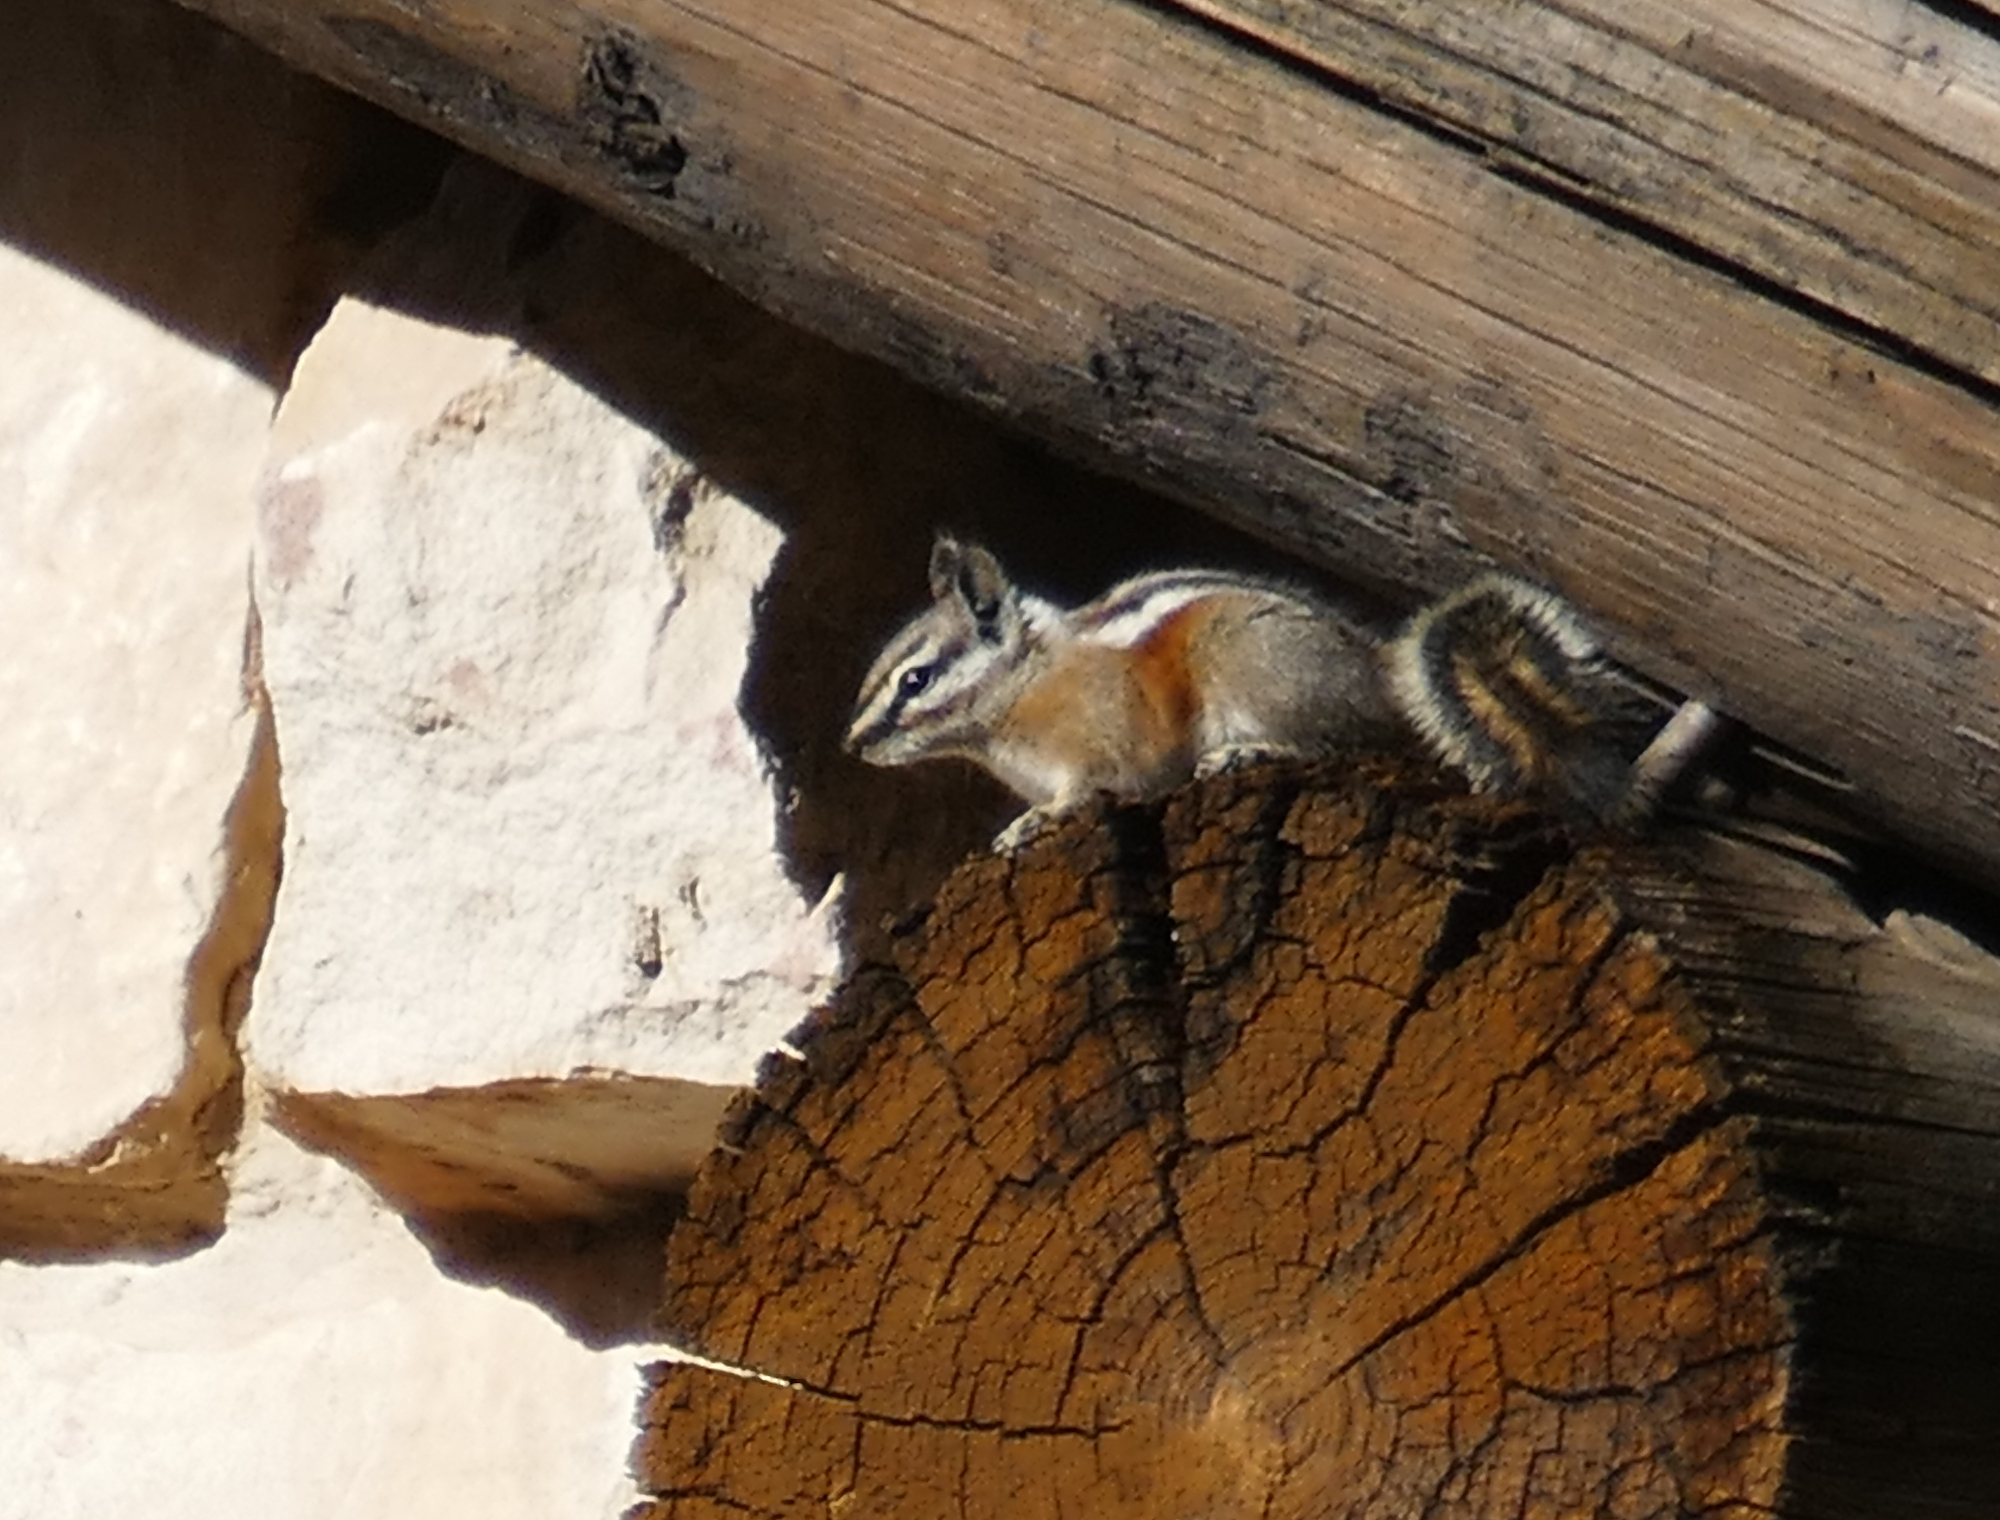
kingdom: Animalia
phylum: Chordata
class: Mammalia
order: Rodentia
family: Sciuridae
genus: Tamias
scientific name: Tamias umbrinus
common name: Uinta chipmunk
